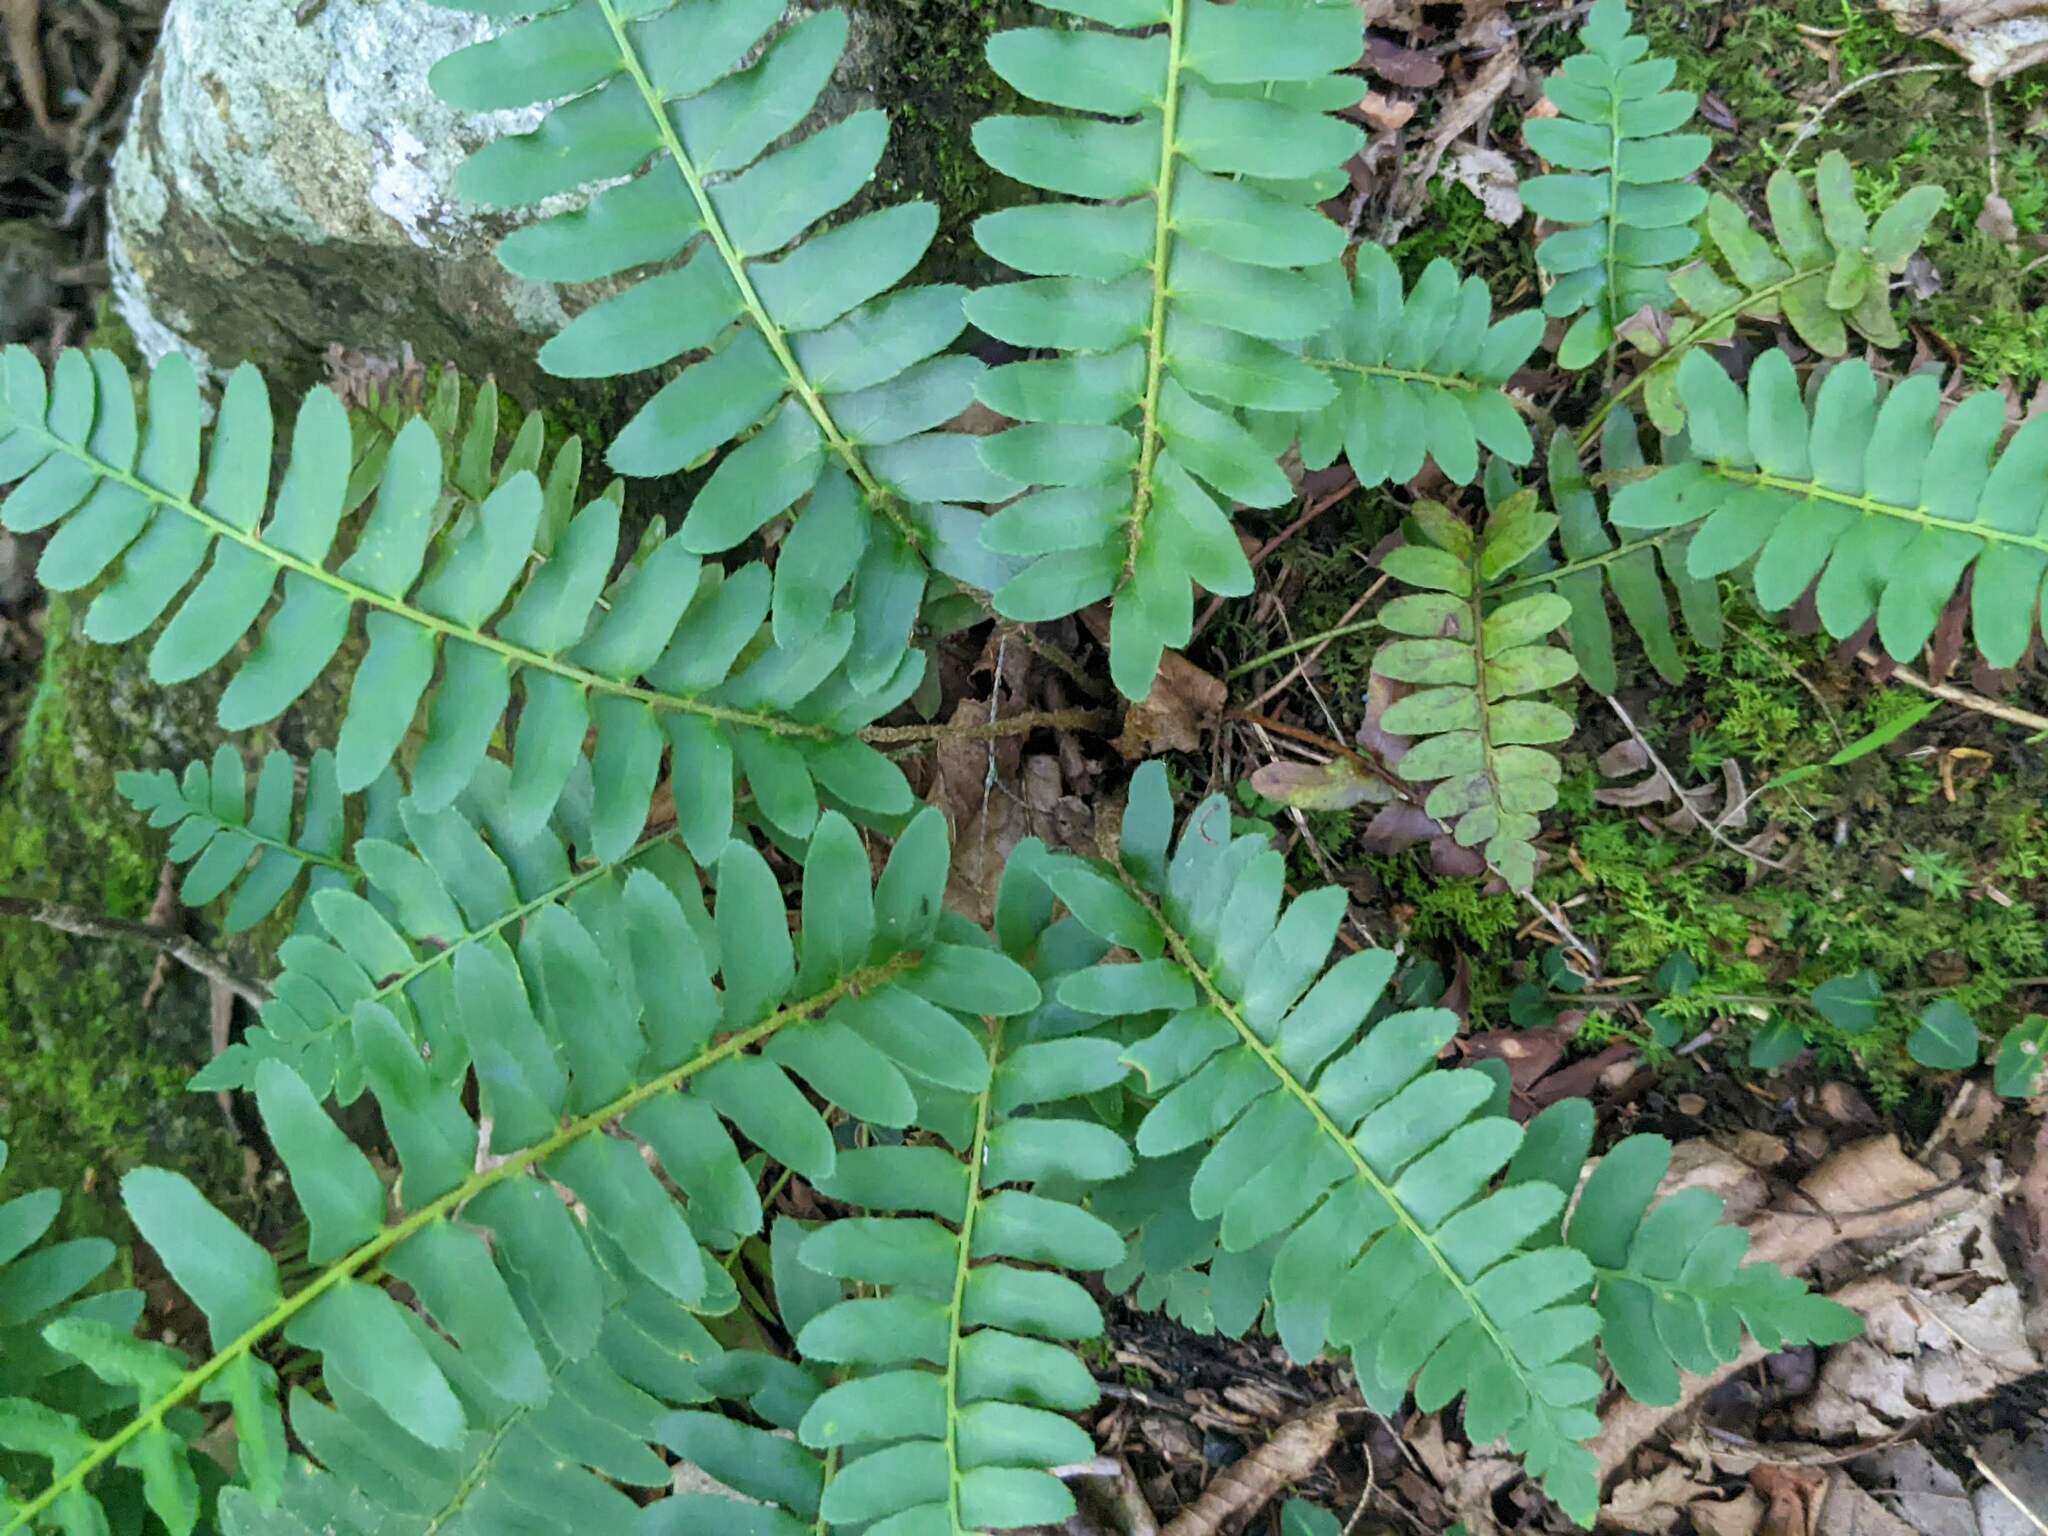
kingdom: Plantae
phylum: Tracheophyta
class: Polypodiopsida
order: Polypodiales
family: Dryopteridaceae
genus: Polystichum
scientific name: Polystichum acrostichoides
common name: Christmas fern
